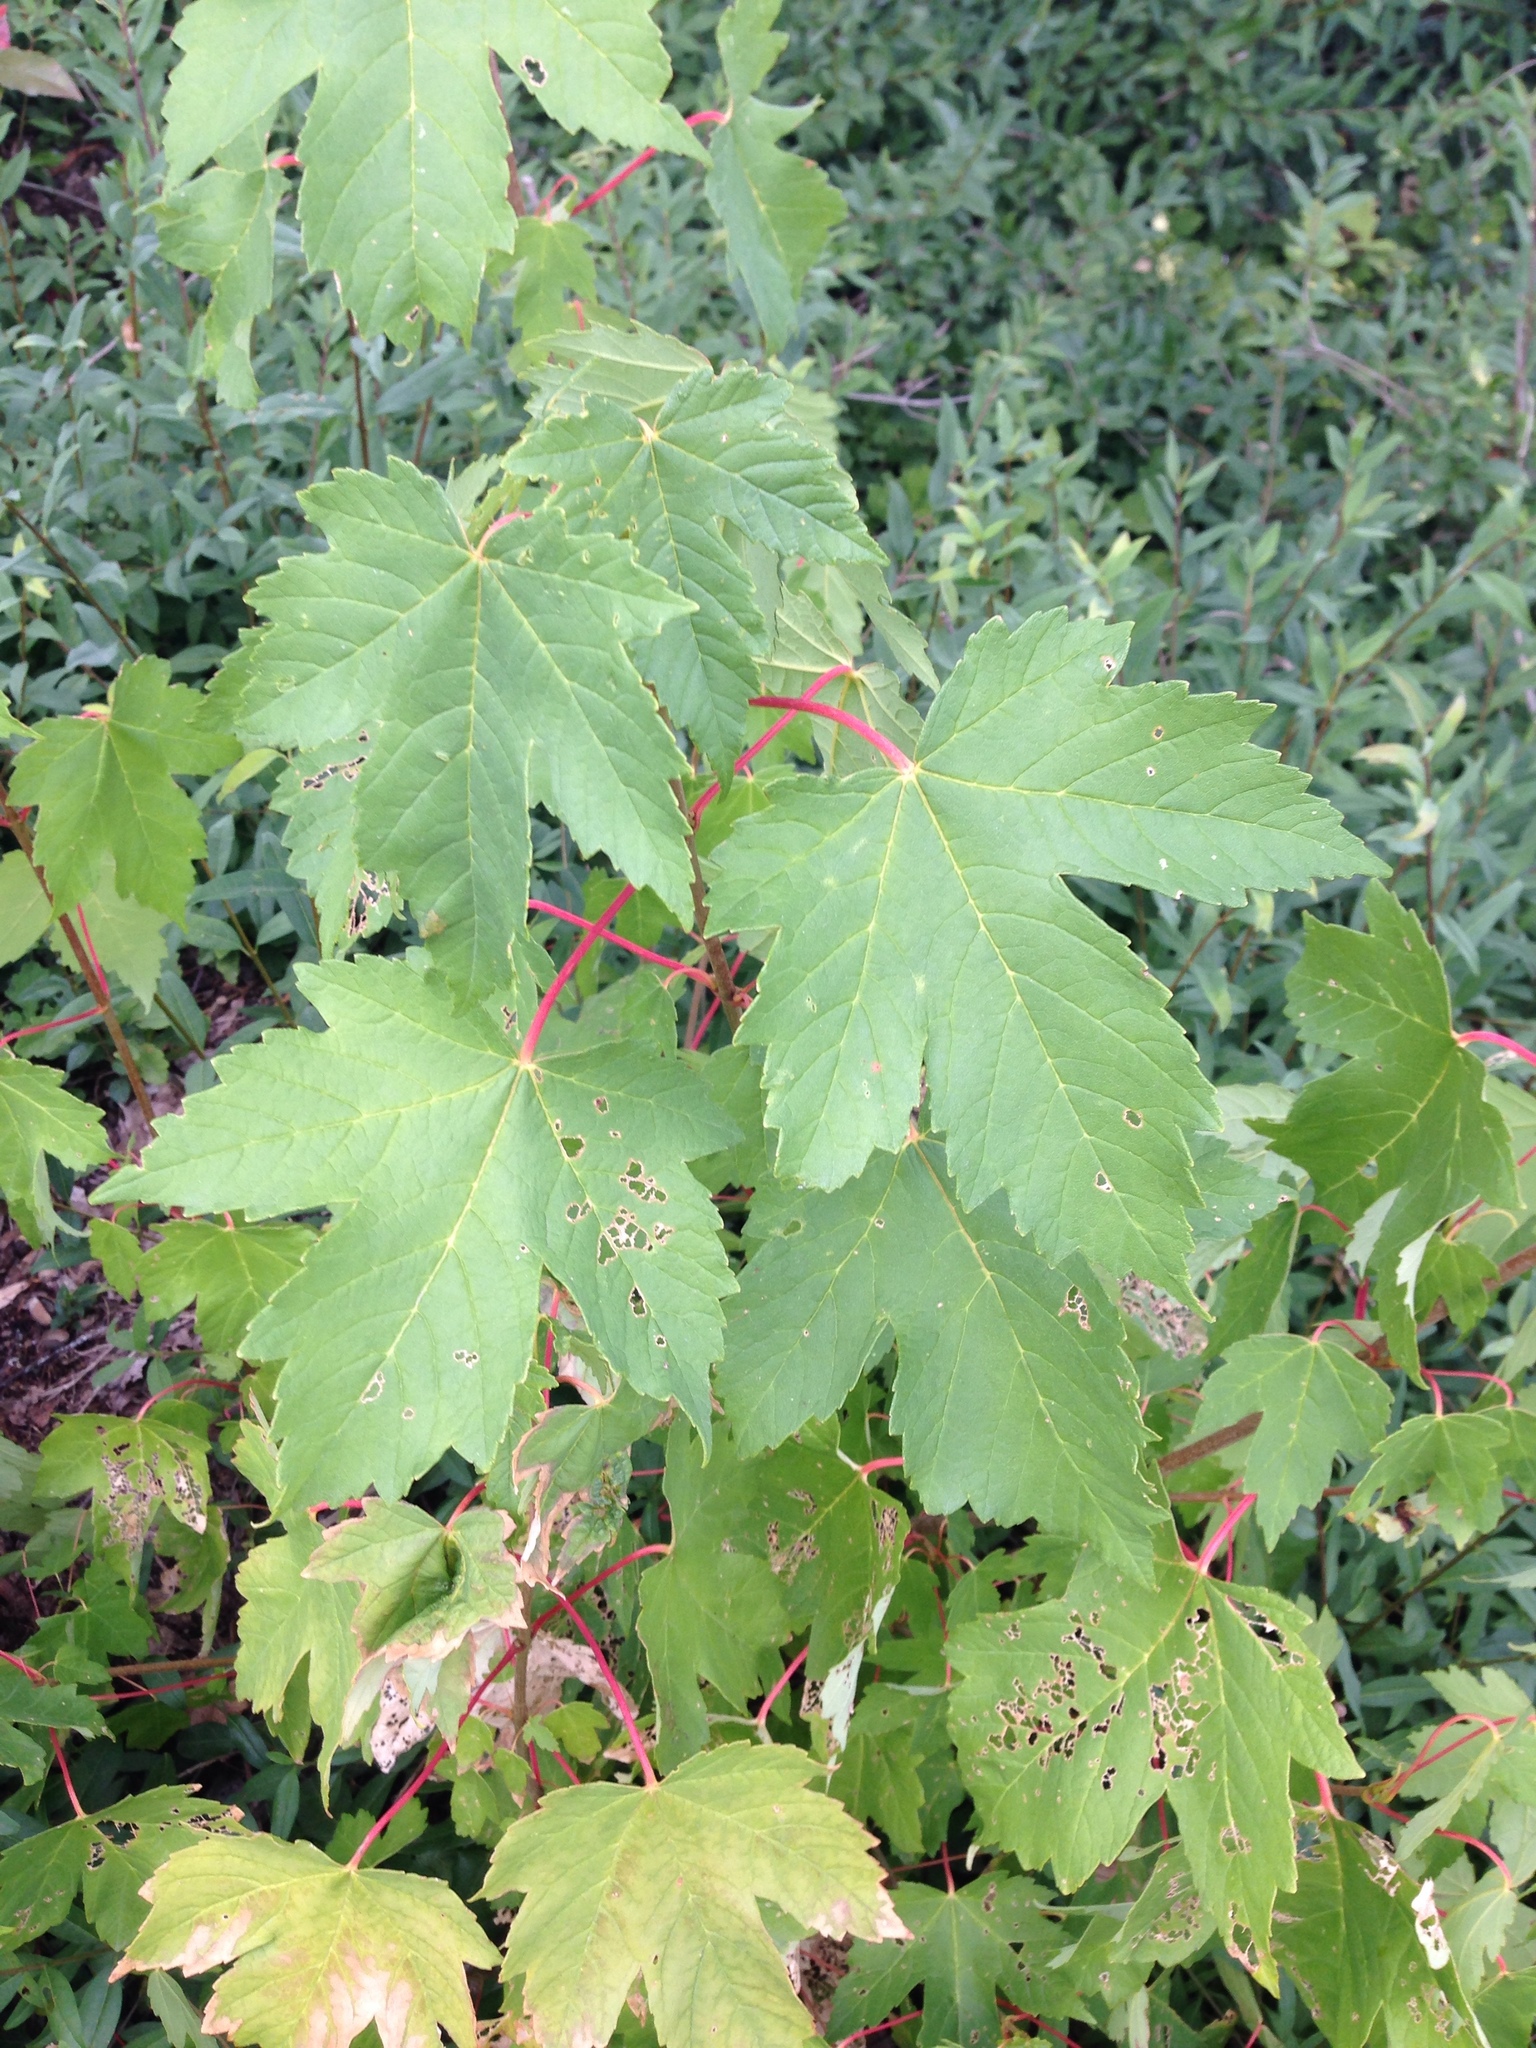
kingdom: Plantae
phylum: Tracheophyta
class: Magnoliopsida
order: Sapindales
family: Sapindaceae
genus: Acer
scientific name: Acer pseudoplatanus
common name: Sycamore
